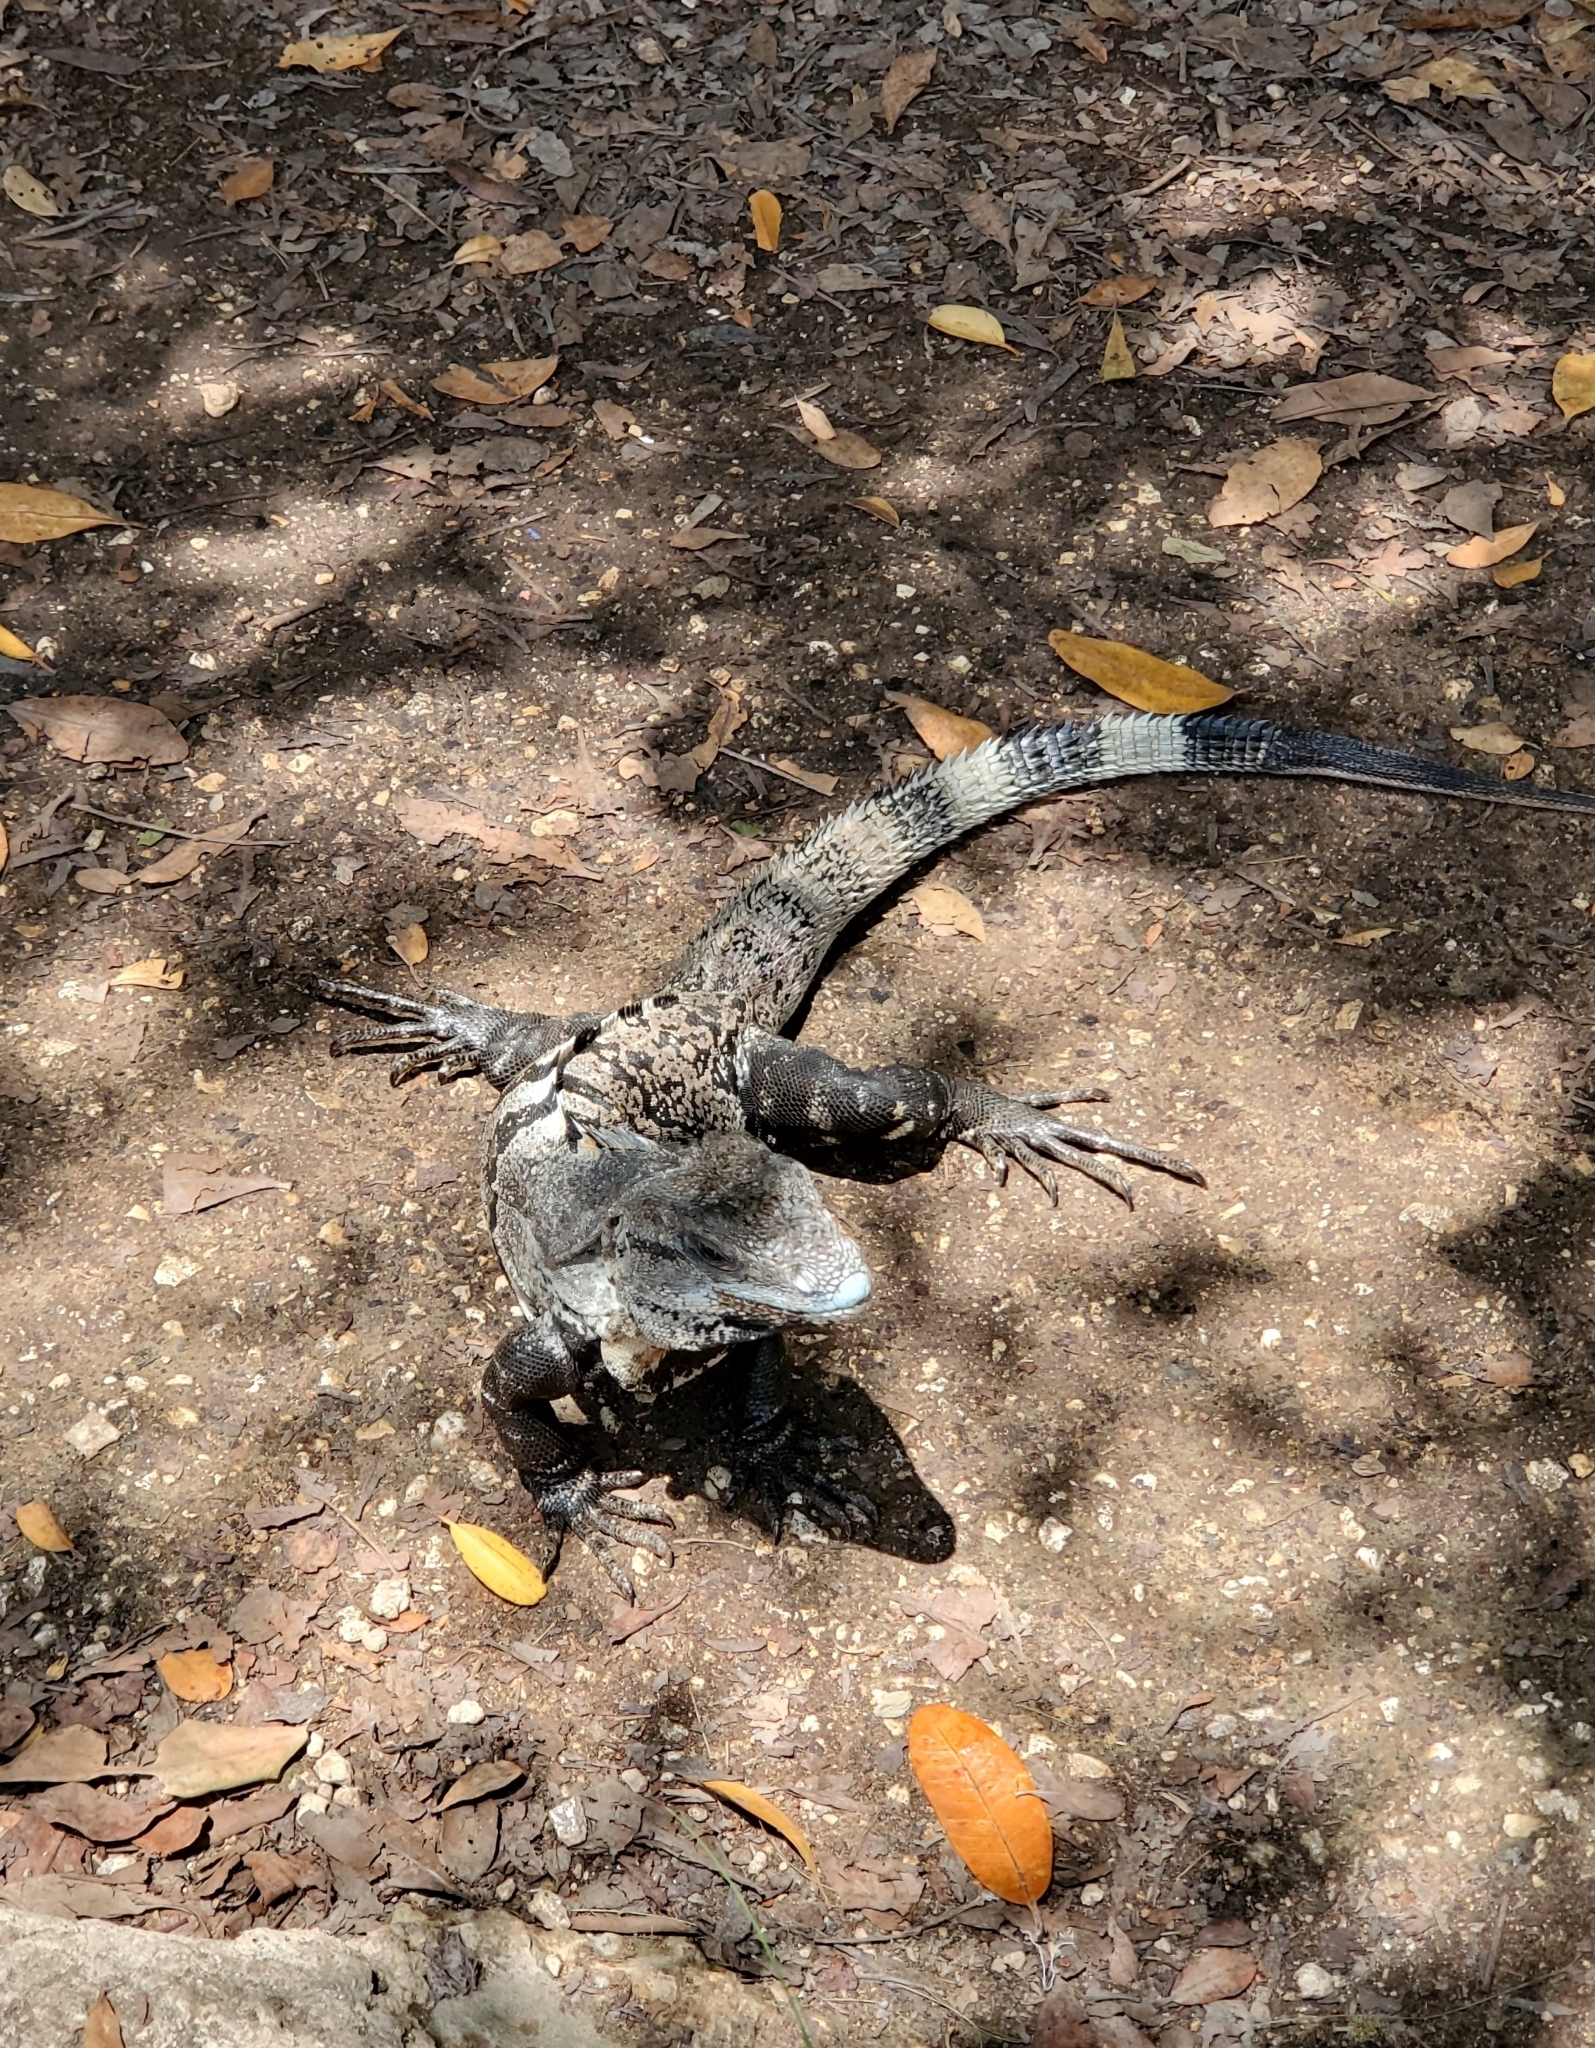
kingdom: Animalia
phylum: Chordata
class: Squamata
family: Iguanidae
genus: Ctenosaura
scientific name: Ctenosaura similis
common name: Black spiny-tailed iguana
